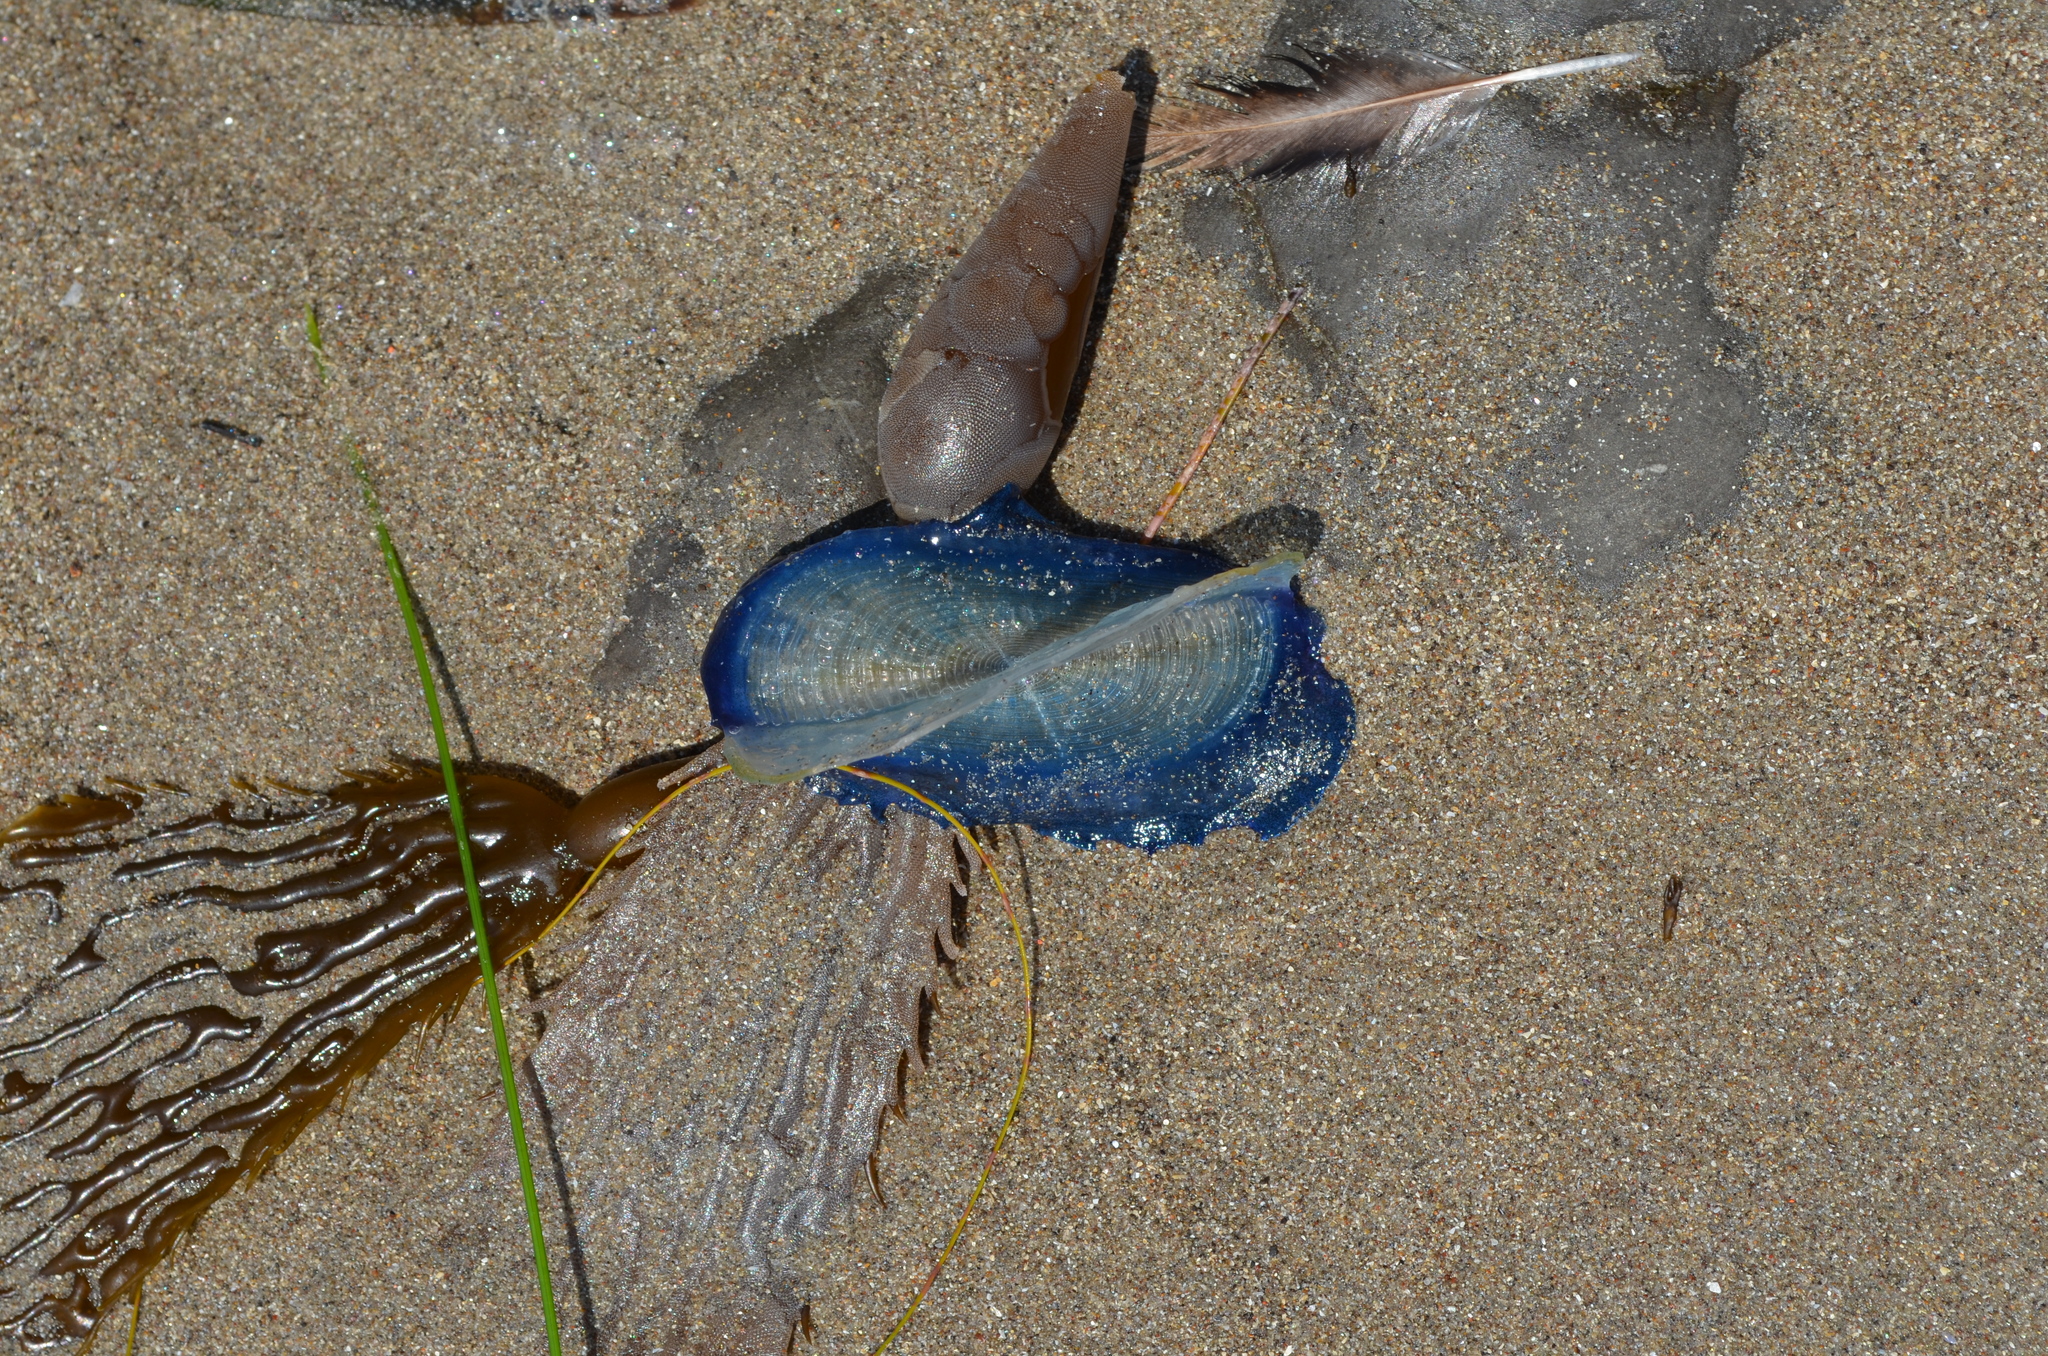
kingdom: Animalia
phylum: Cnidaria
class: Hydrozoa
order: Anthoathecata
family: Porpitidae
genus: Velella
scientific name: Velella velella
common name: By-the-wind-sailor
